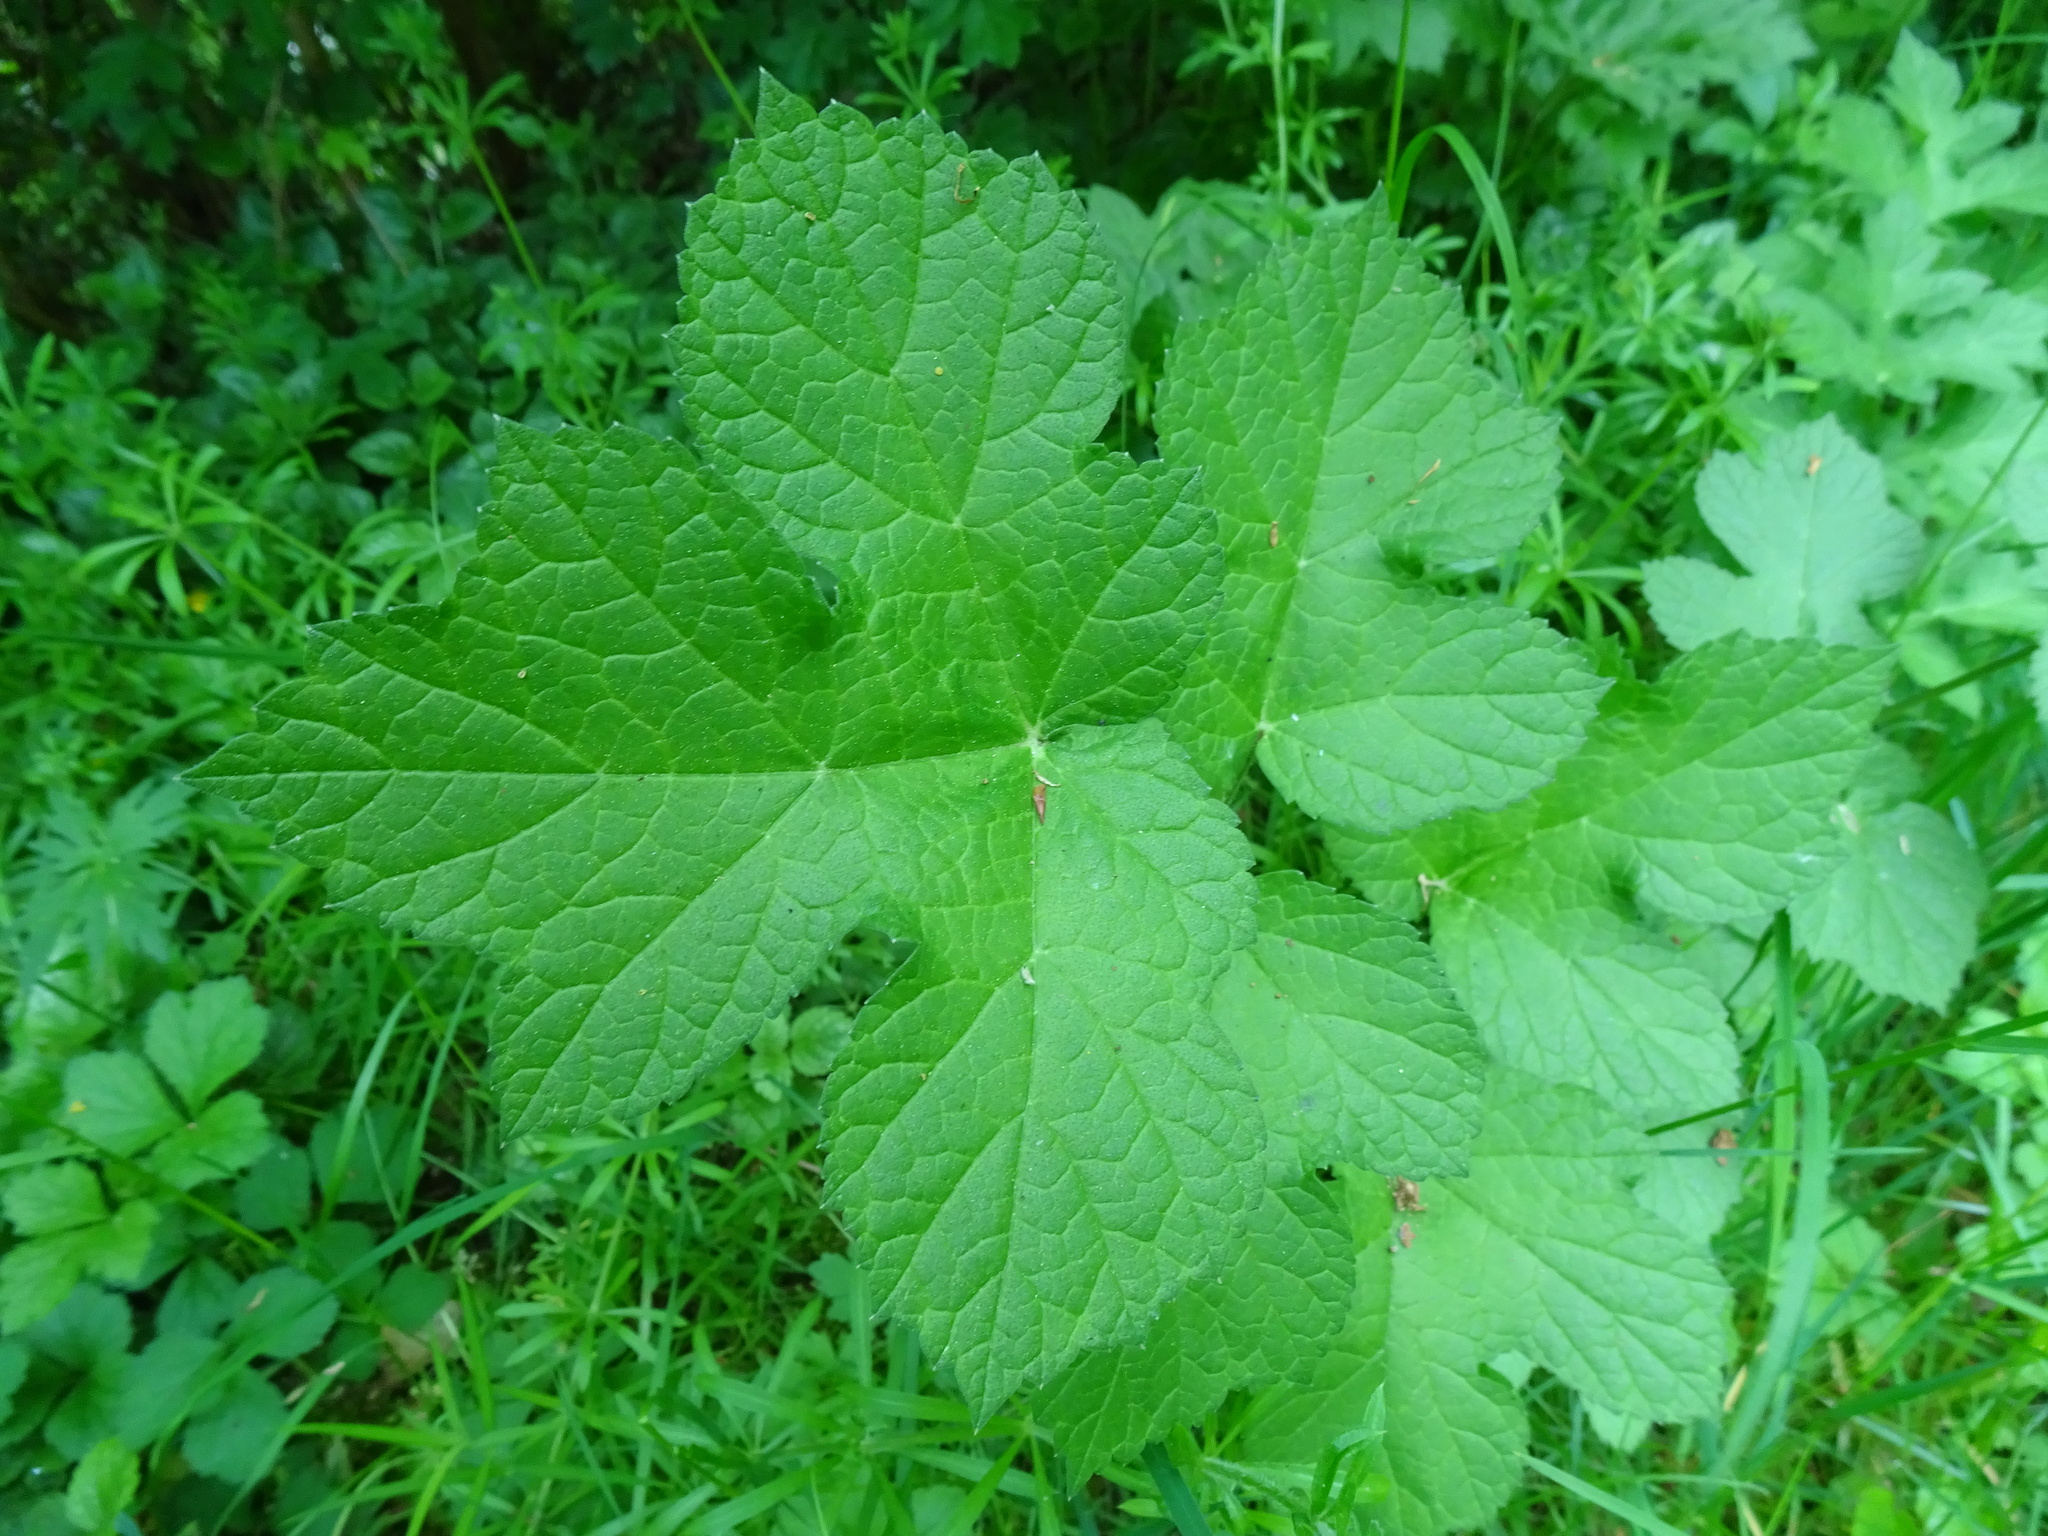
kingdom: Plantae
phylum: Tracheophyta
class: Magnoliopsida
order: Apiales
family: Apiaceae
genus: Heracleum
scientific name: Heracleum sphondylium
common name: Hogweed
